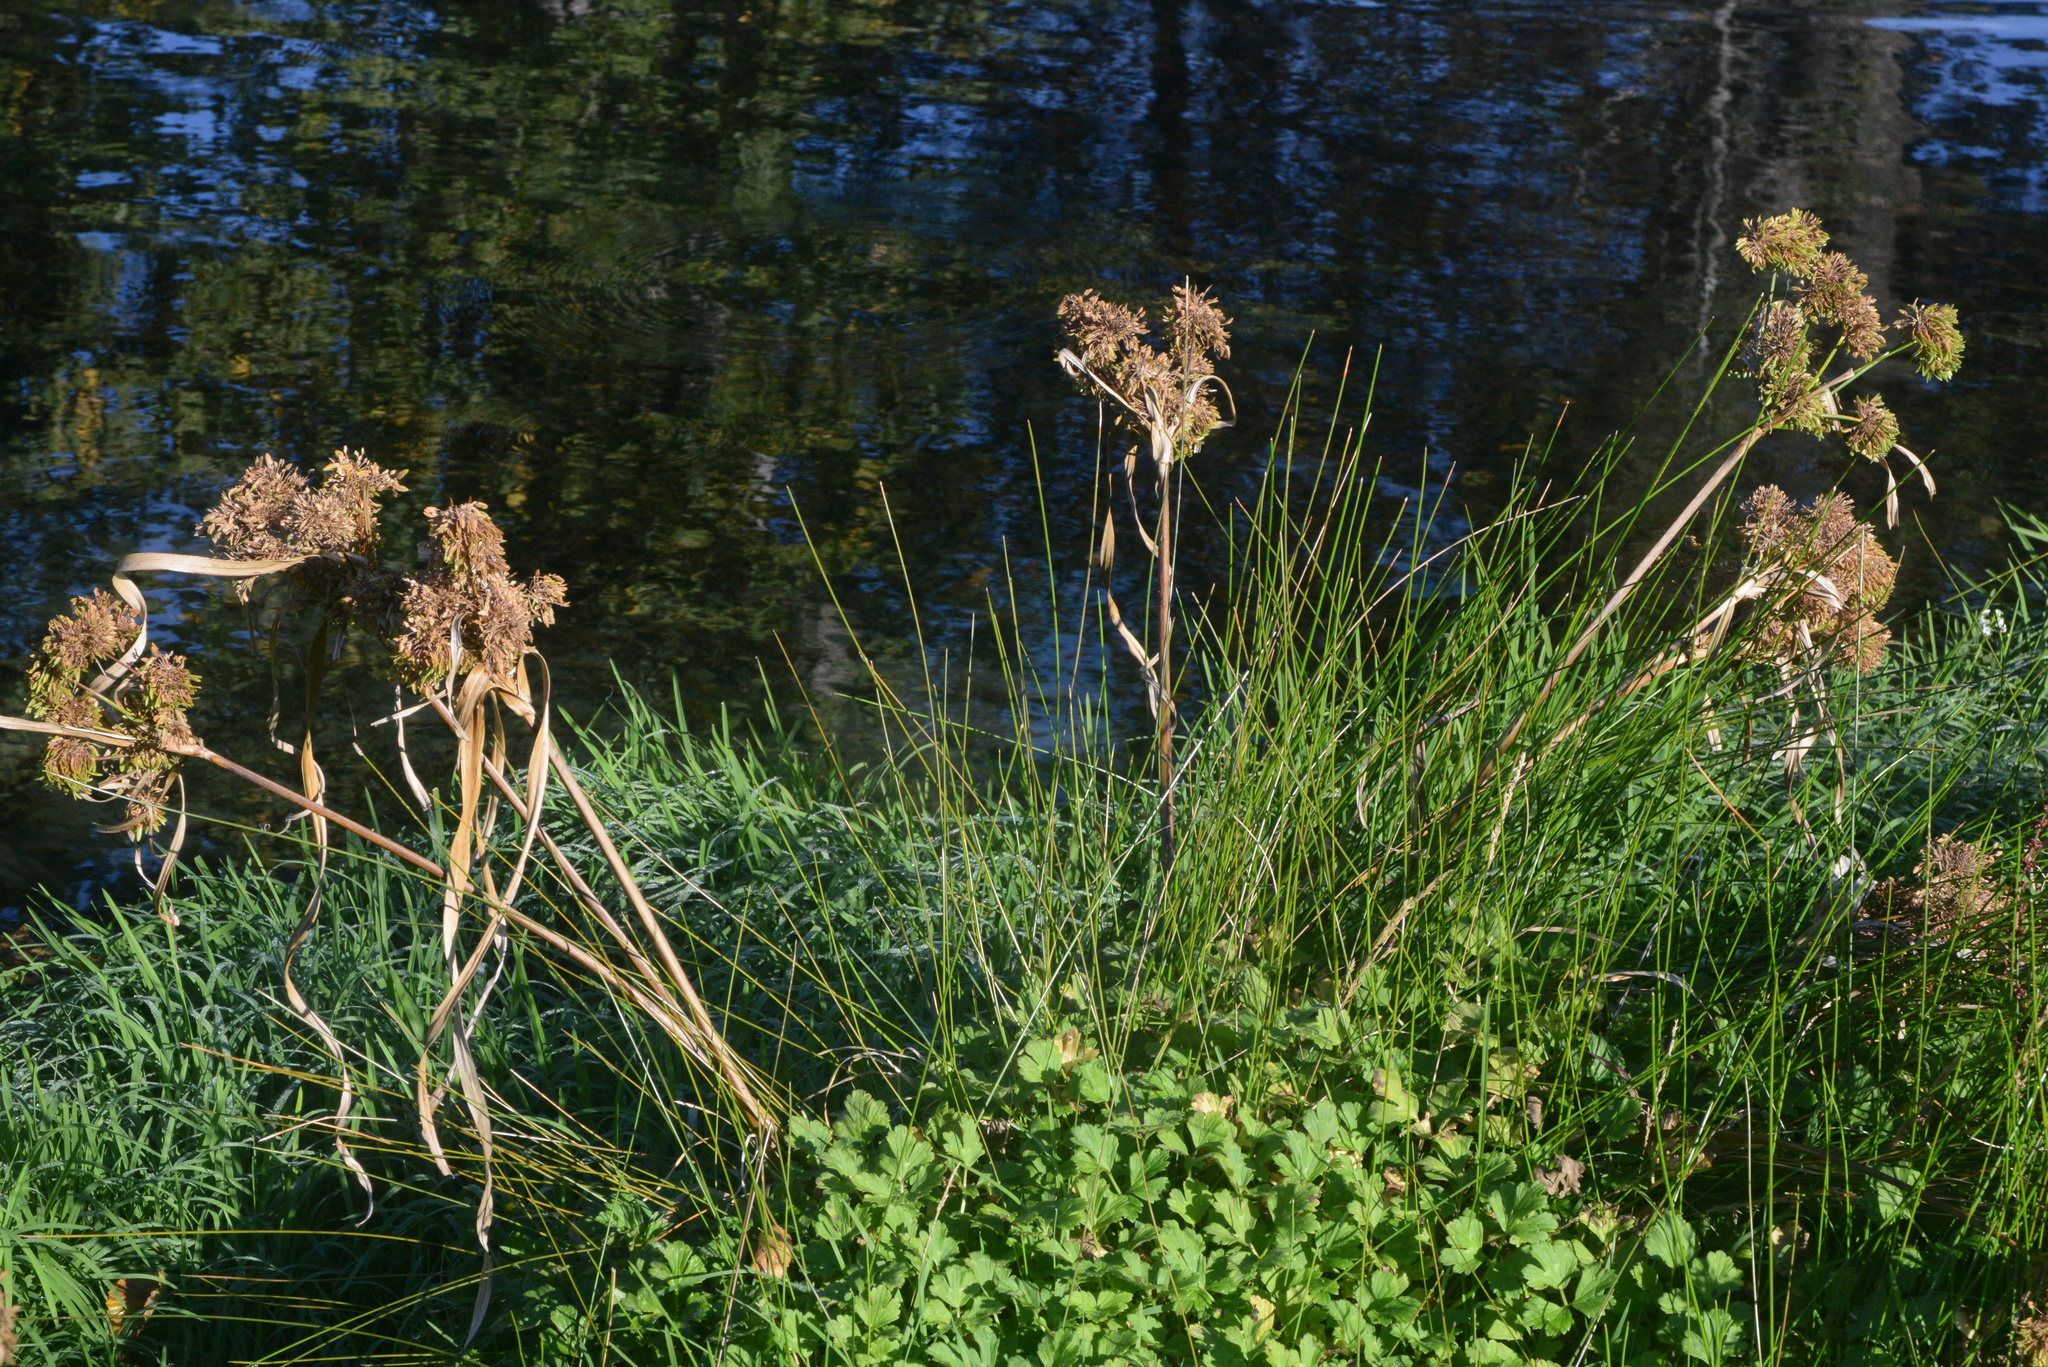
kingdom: Plantae
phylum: Tracheophyta
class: Liliopsida
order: Poales
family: Cyperaceae
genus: Cyperus
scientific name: Cyperus eragrostis
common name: Tall flatsedge
